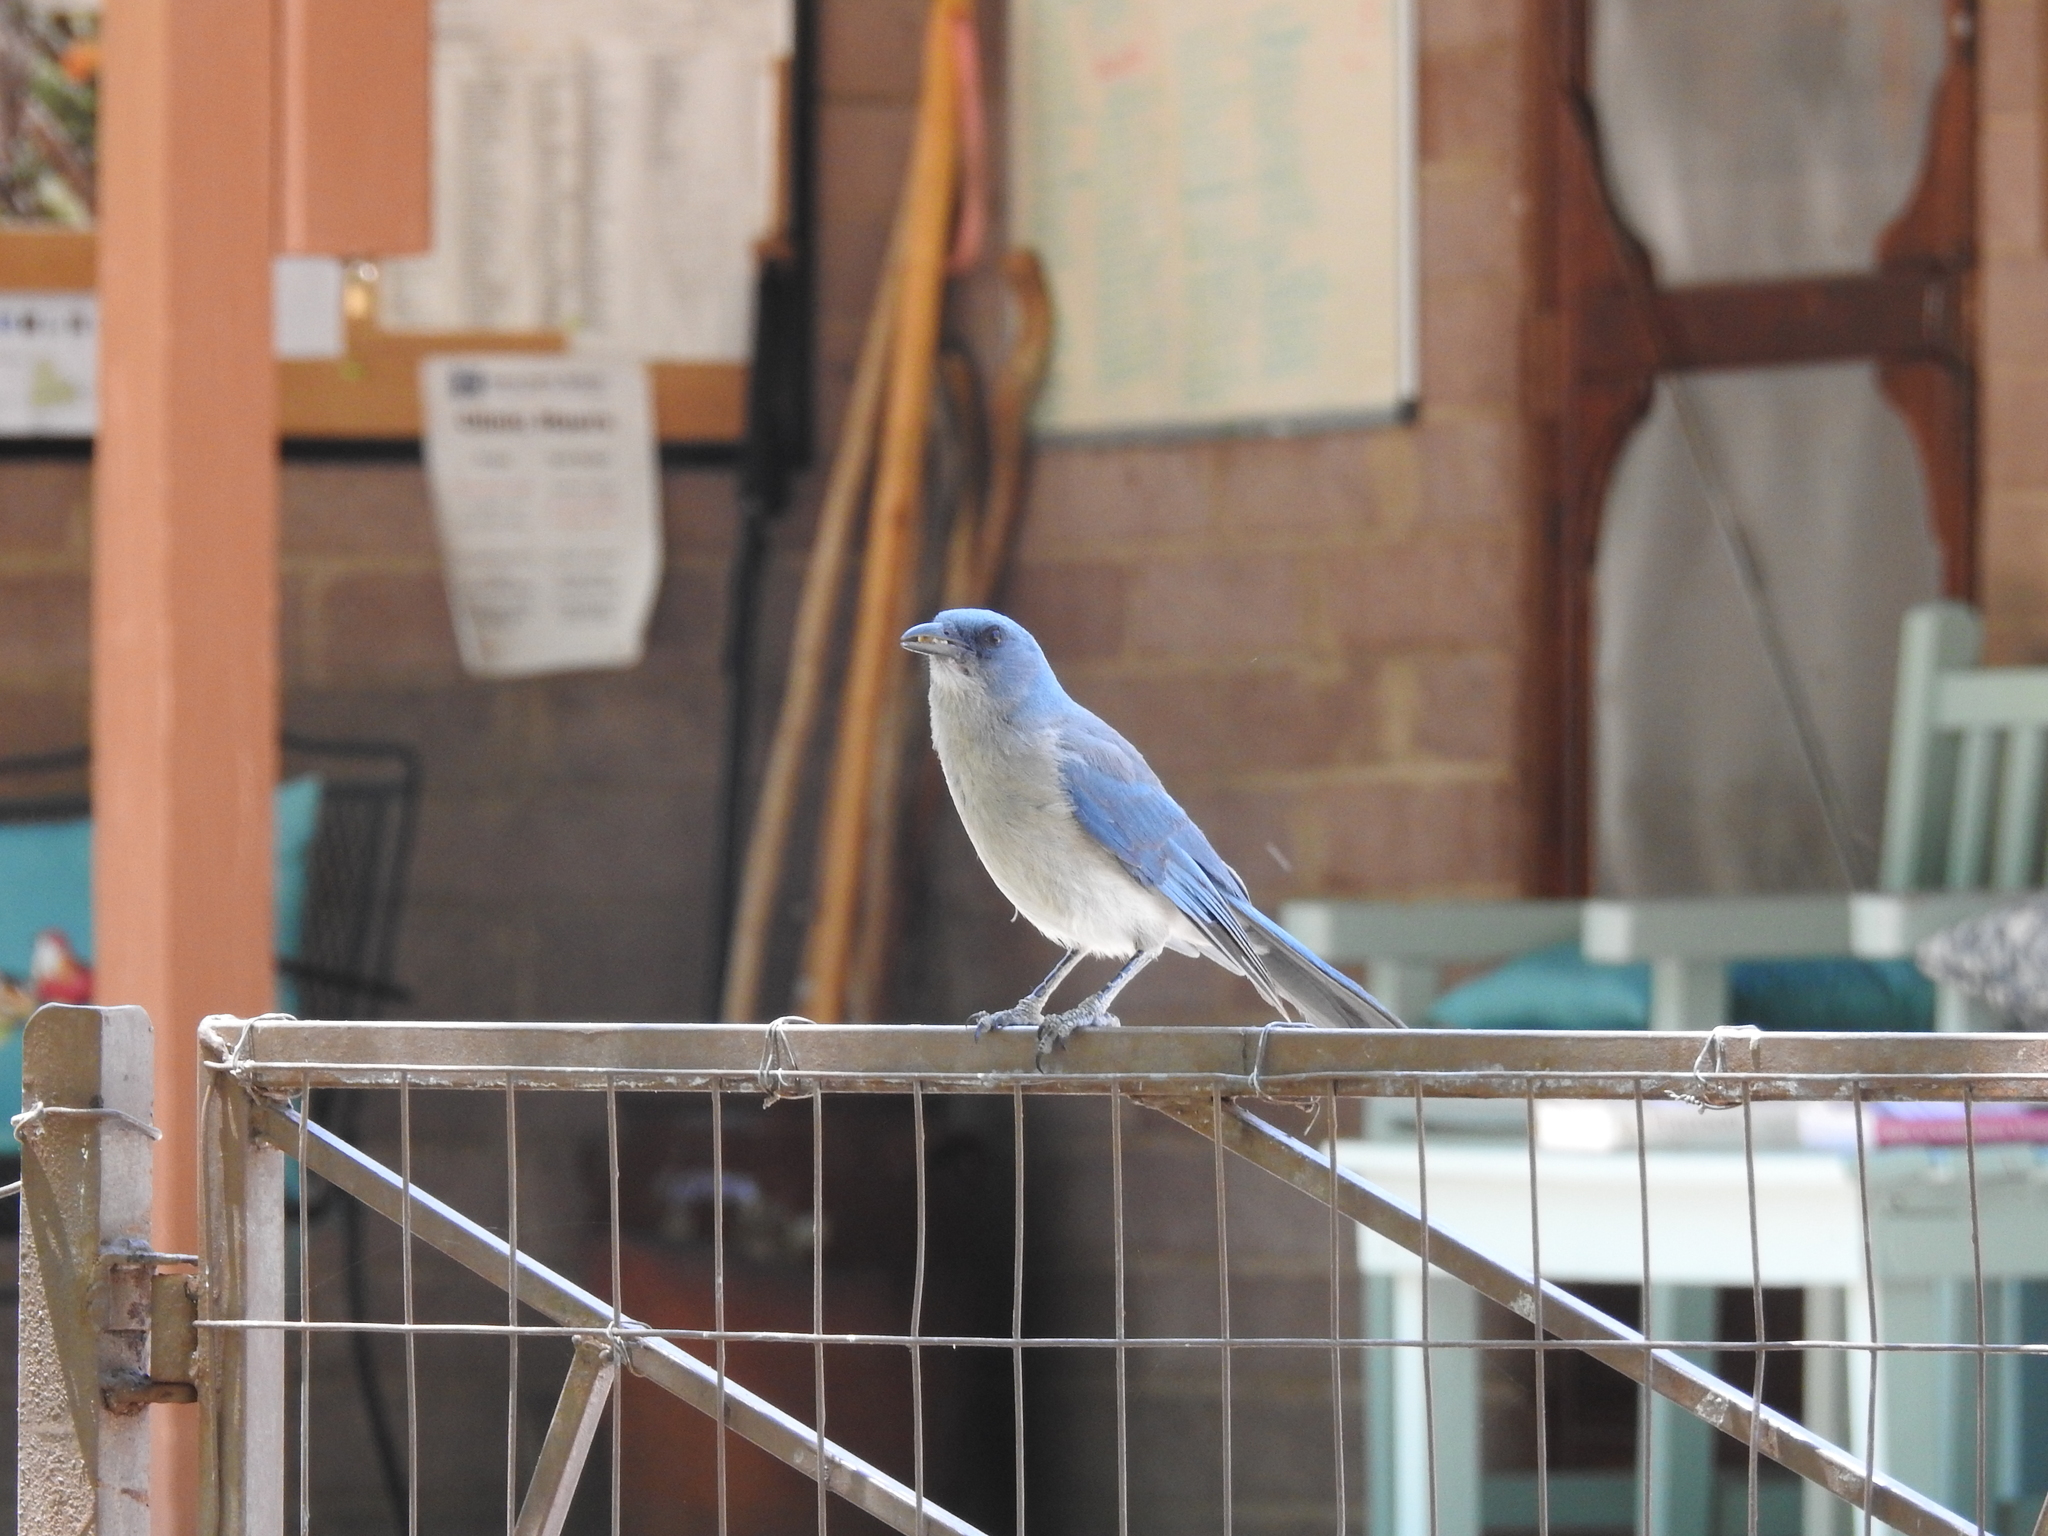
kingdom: Animalia
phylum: Chordata
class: Aves
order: Passeriformes
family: Corvidae
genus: Aphelocoma
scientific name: Aphelocoma wollweberi
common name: Mexican jay
